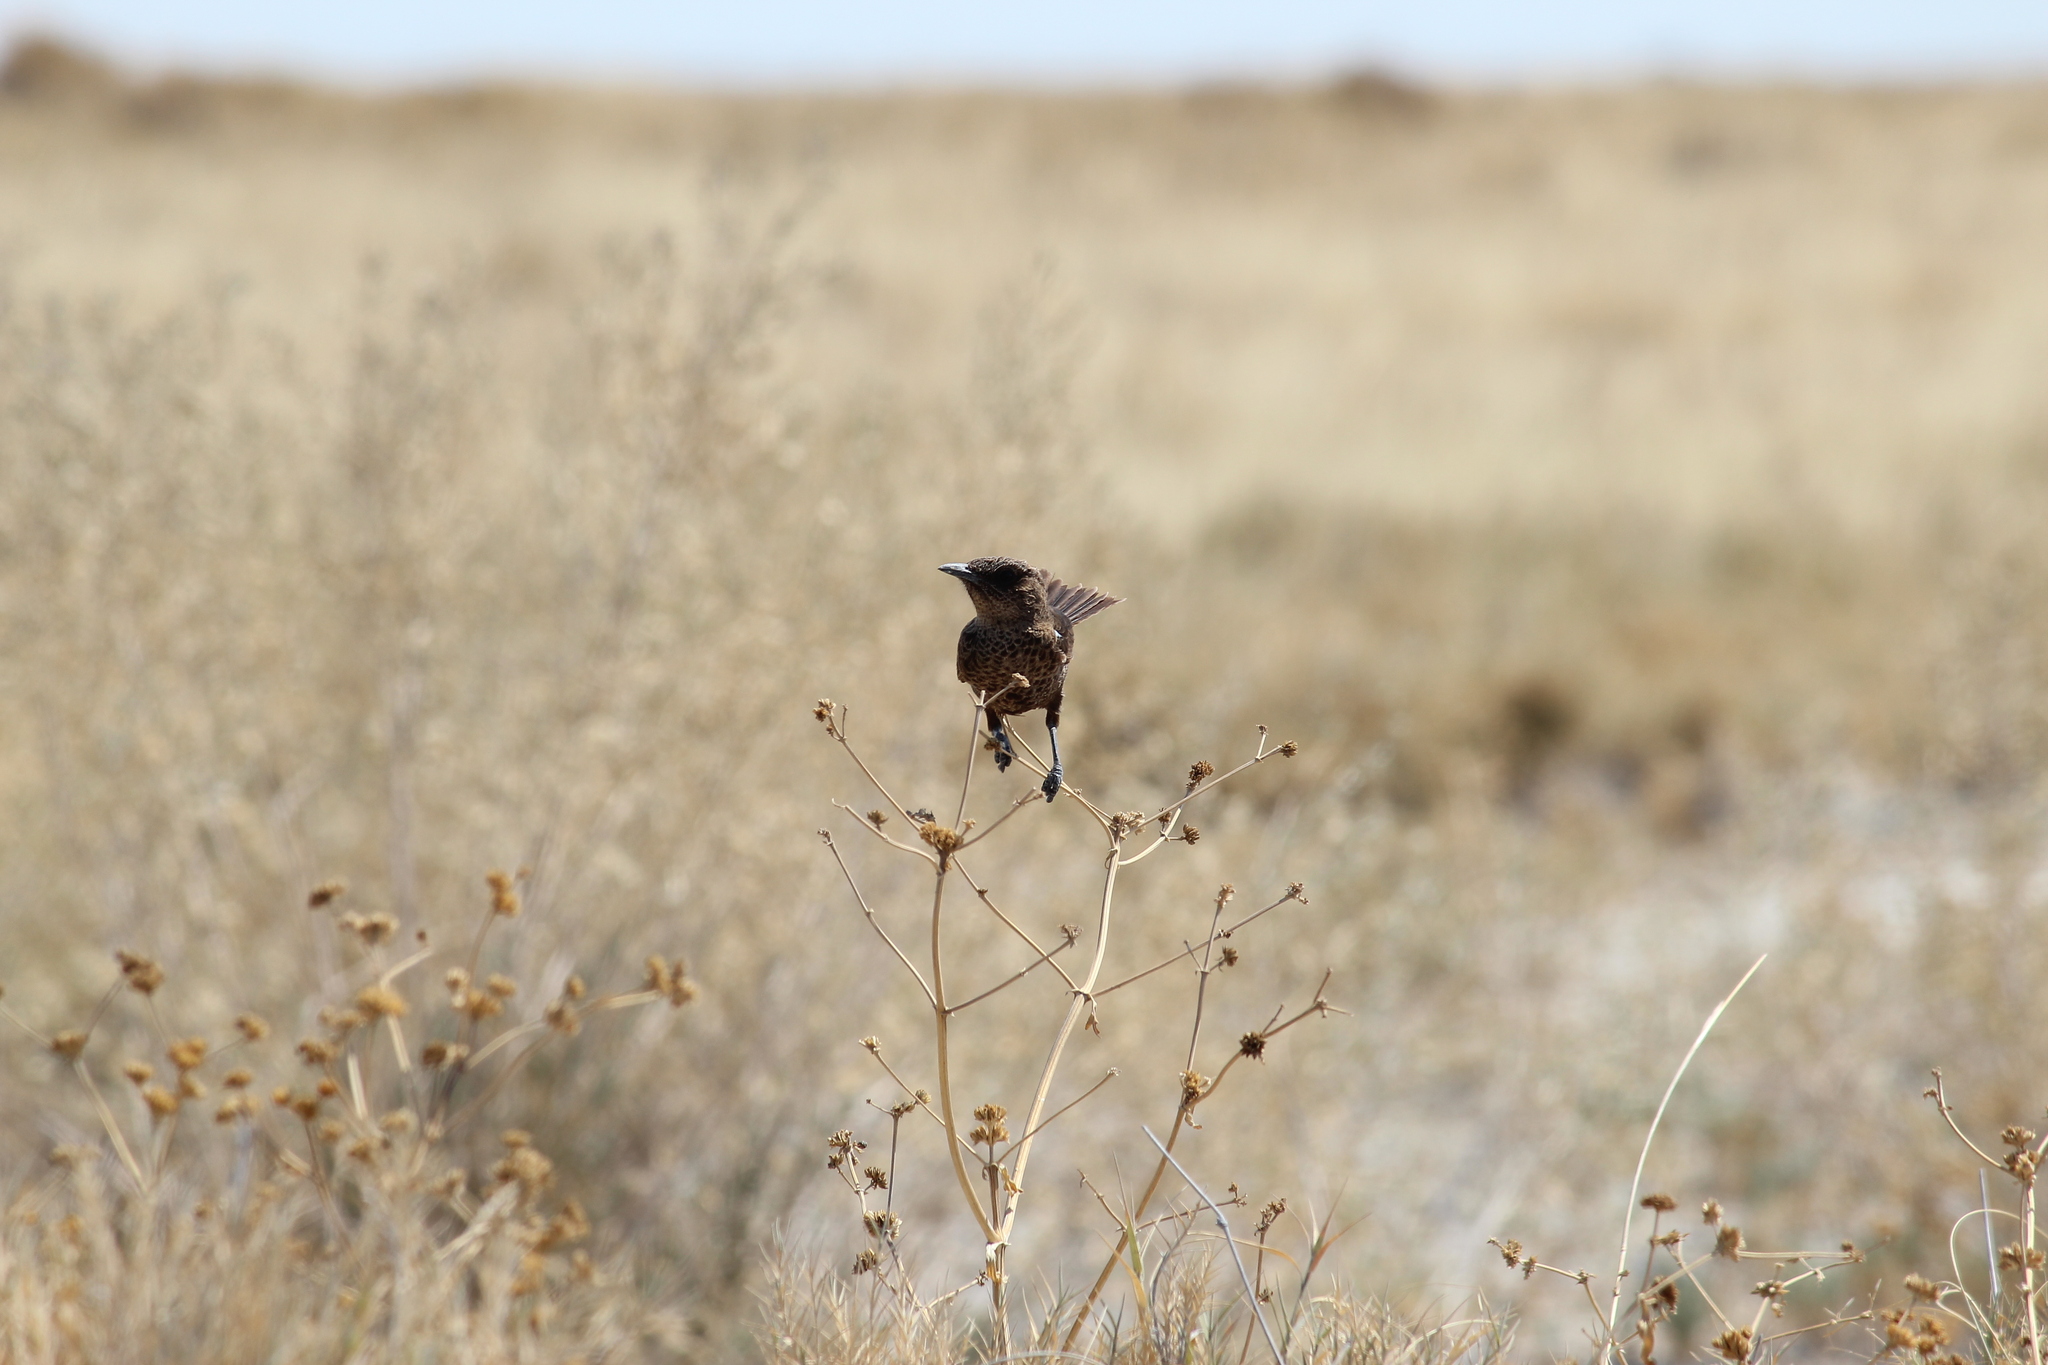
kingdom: Animalia
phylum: Chordata
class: Aves
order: Passeriformes
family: Muscicapidae
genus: Myrmecocichla
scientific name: Myrmecocichla formicivora
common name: Ant-eating chat
